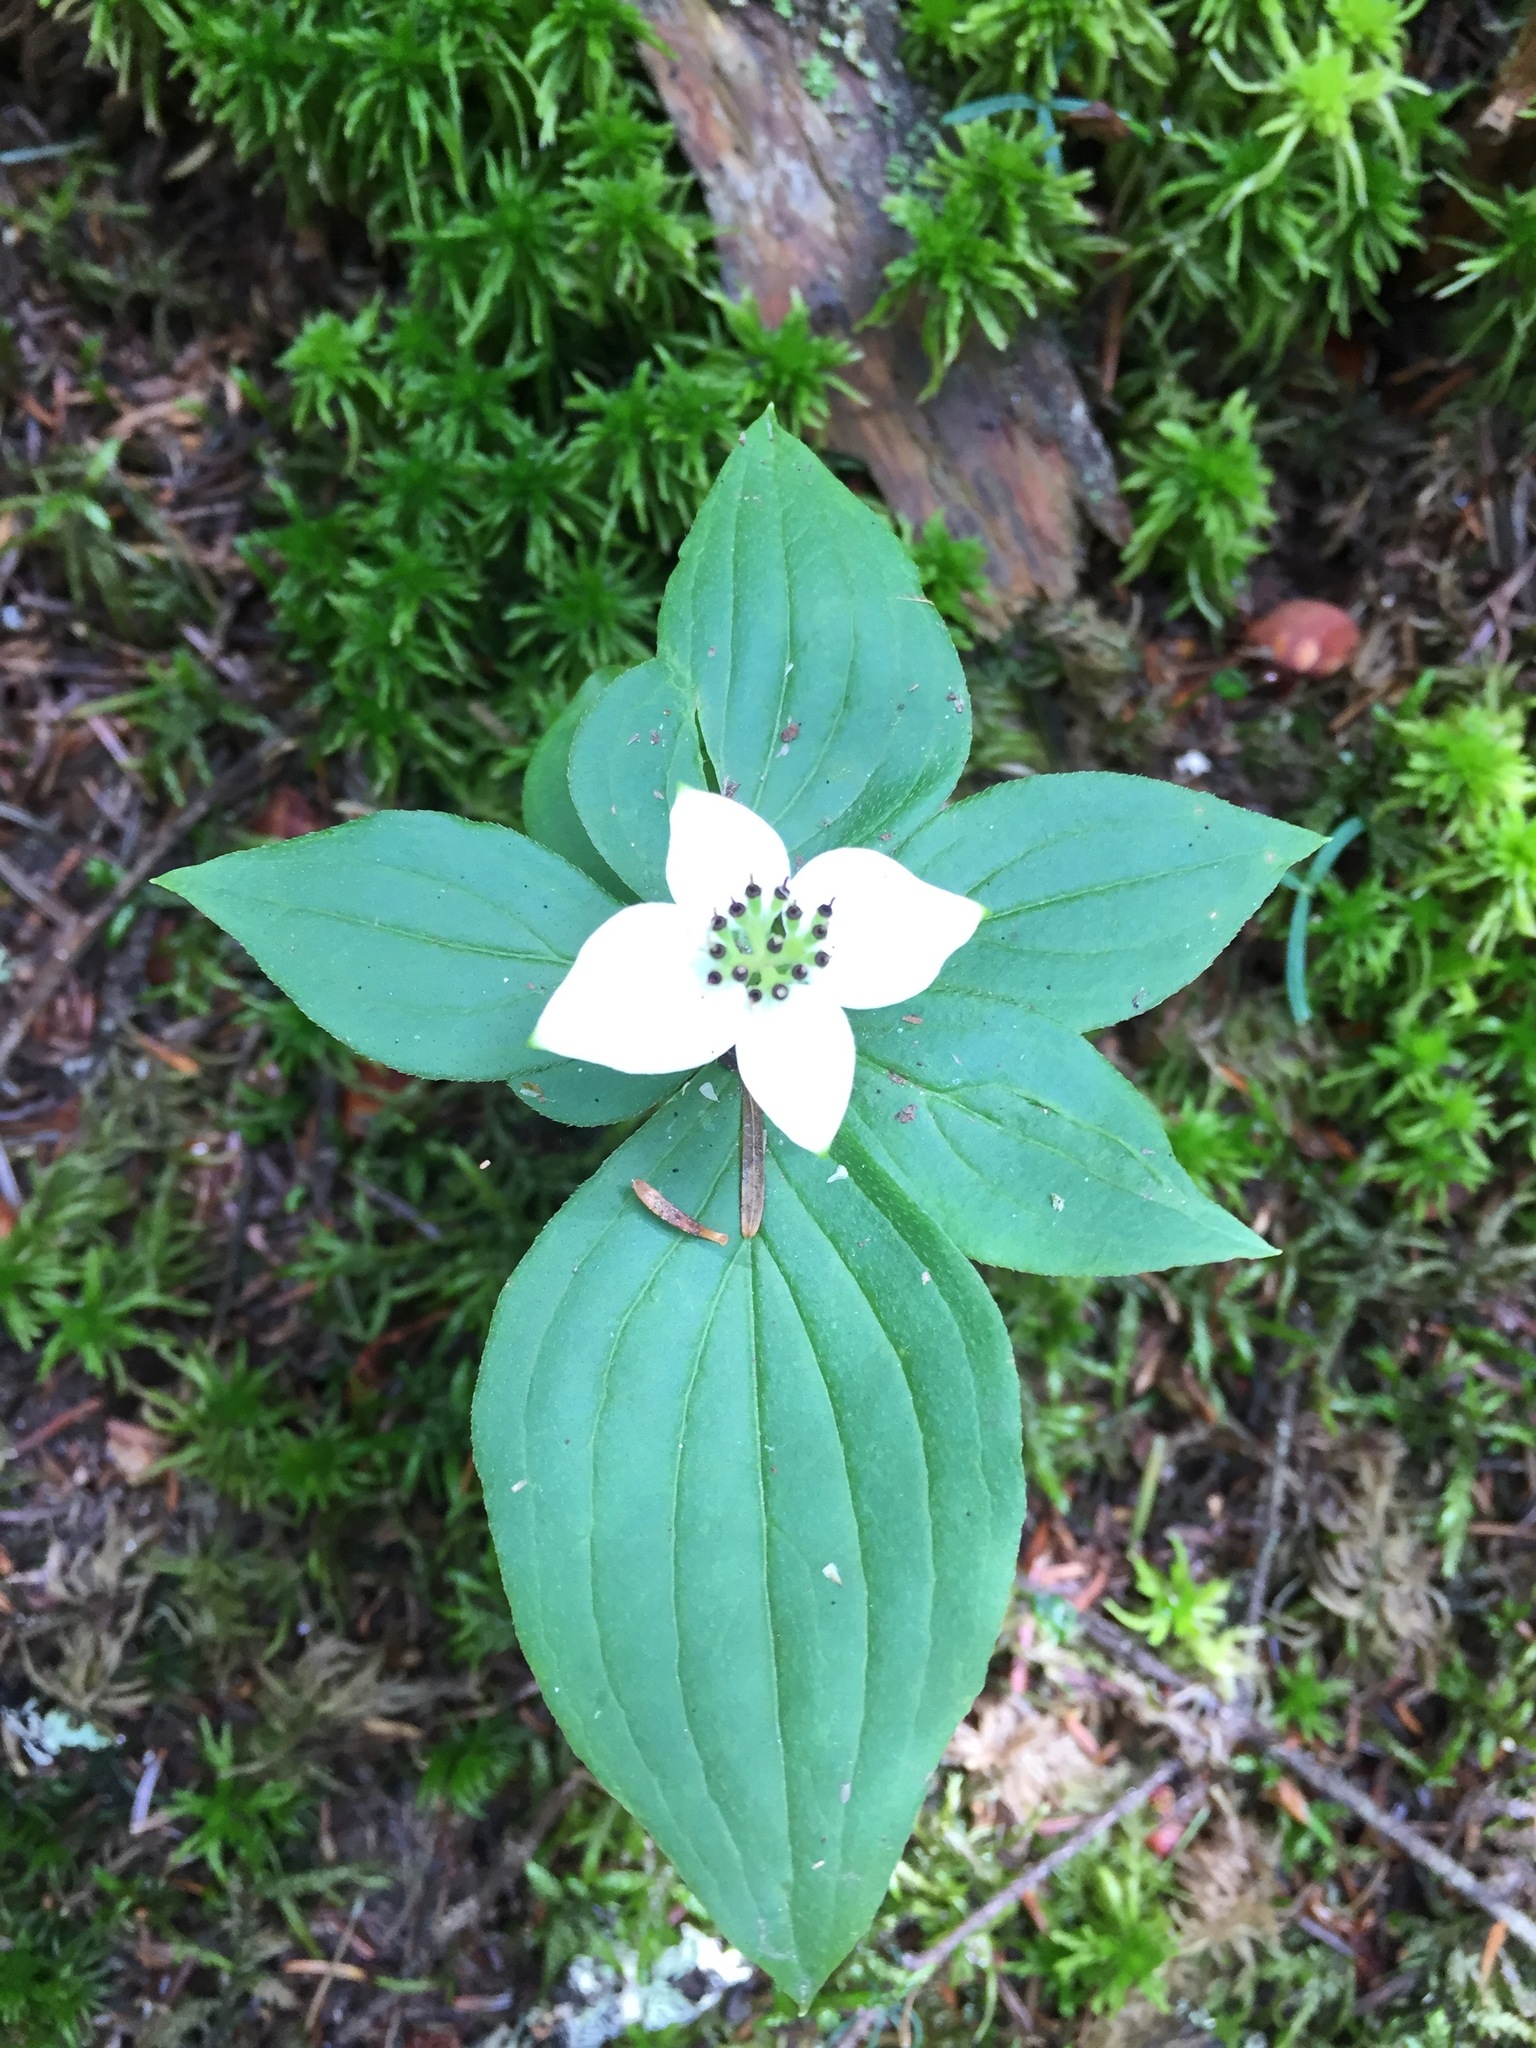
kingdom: Plantae
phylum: Tracheophyta
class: Magnoliopsida
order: Cornales
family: Cornaceae
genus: Cornus
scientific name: Cornus canadensis
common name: Creeping dogwood
